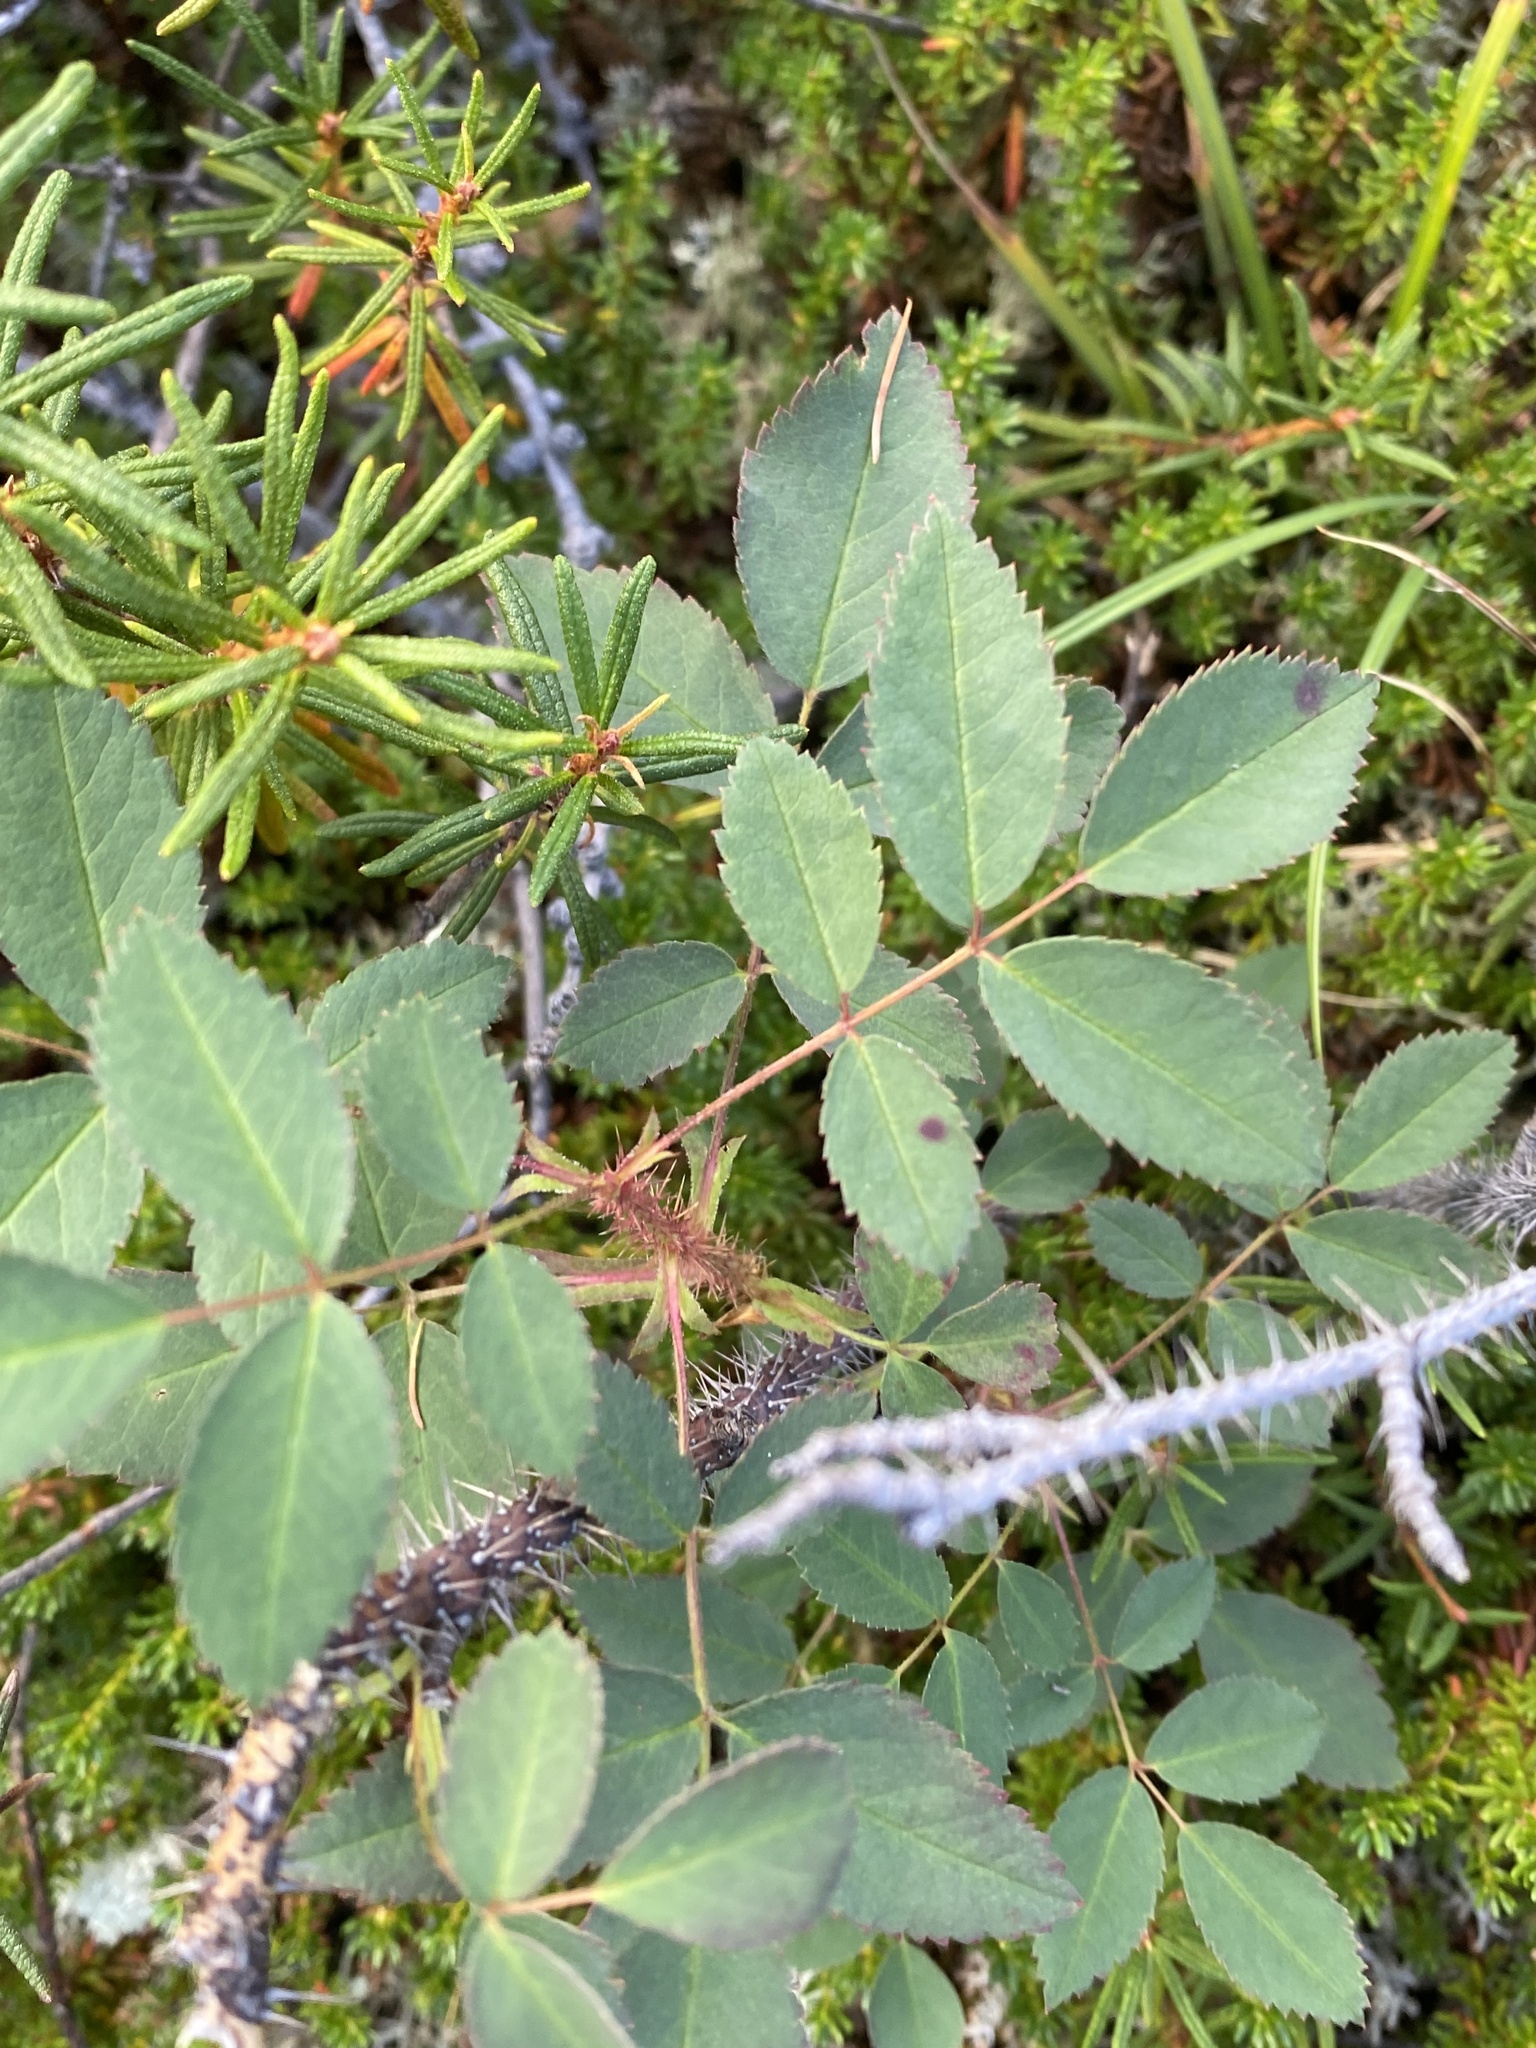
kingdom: Plantae
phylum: Tracheophyta
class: Magnoliopsida
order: Rosales
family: Rosaceae
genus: Rosa
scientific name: Rosa acicularis
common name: Prickly rose
